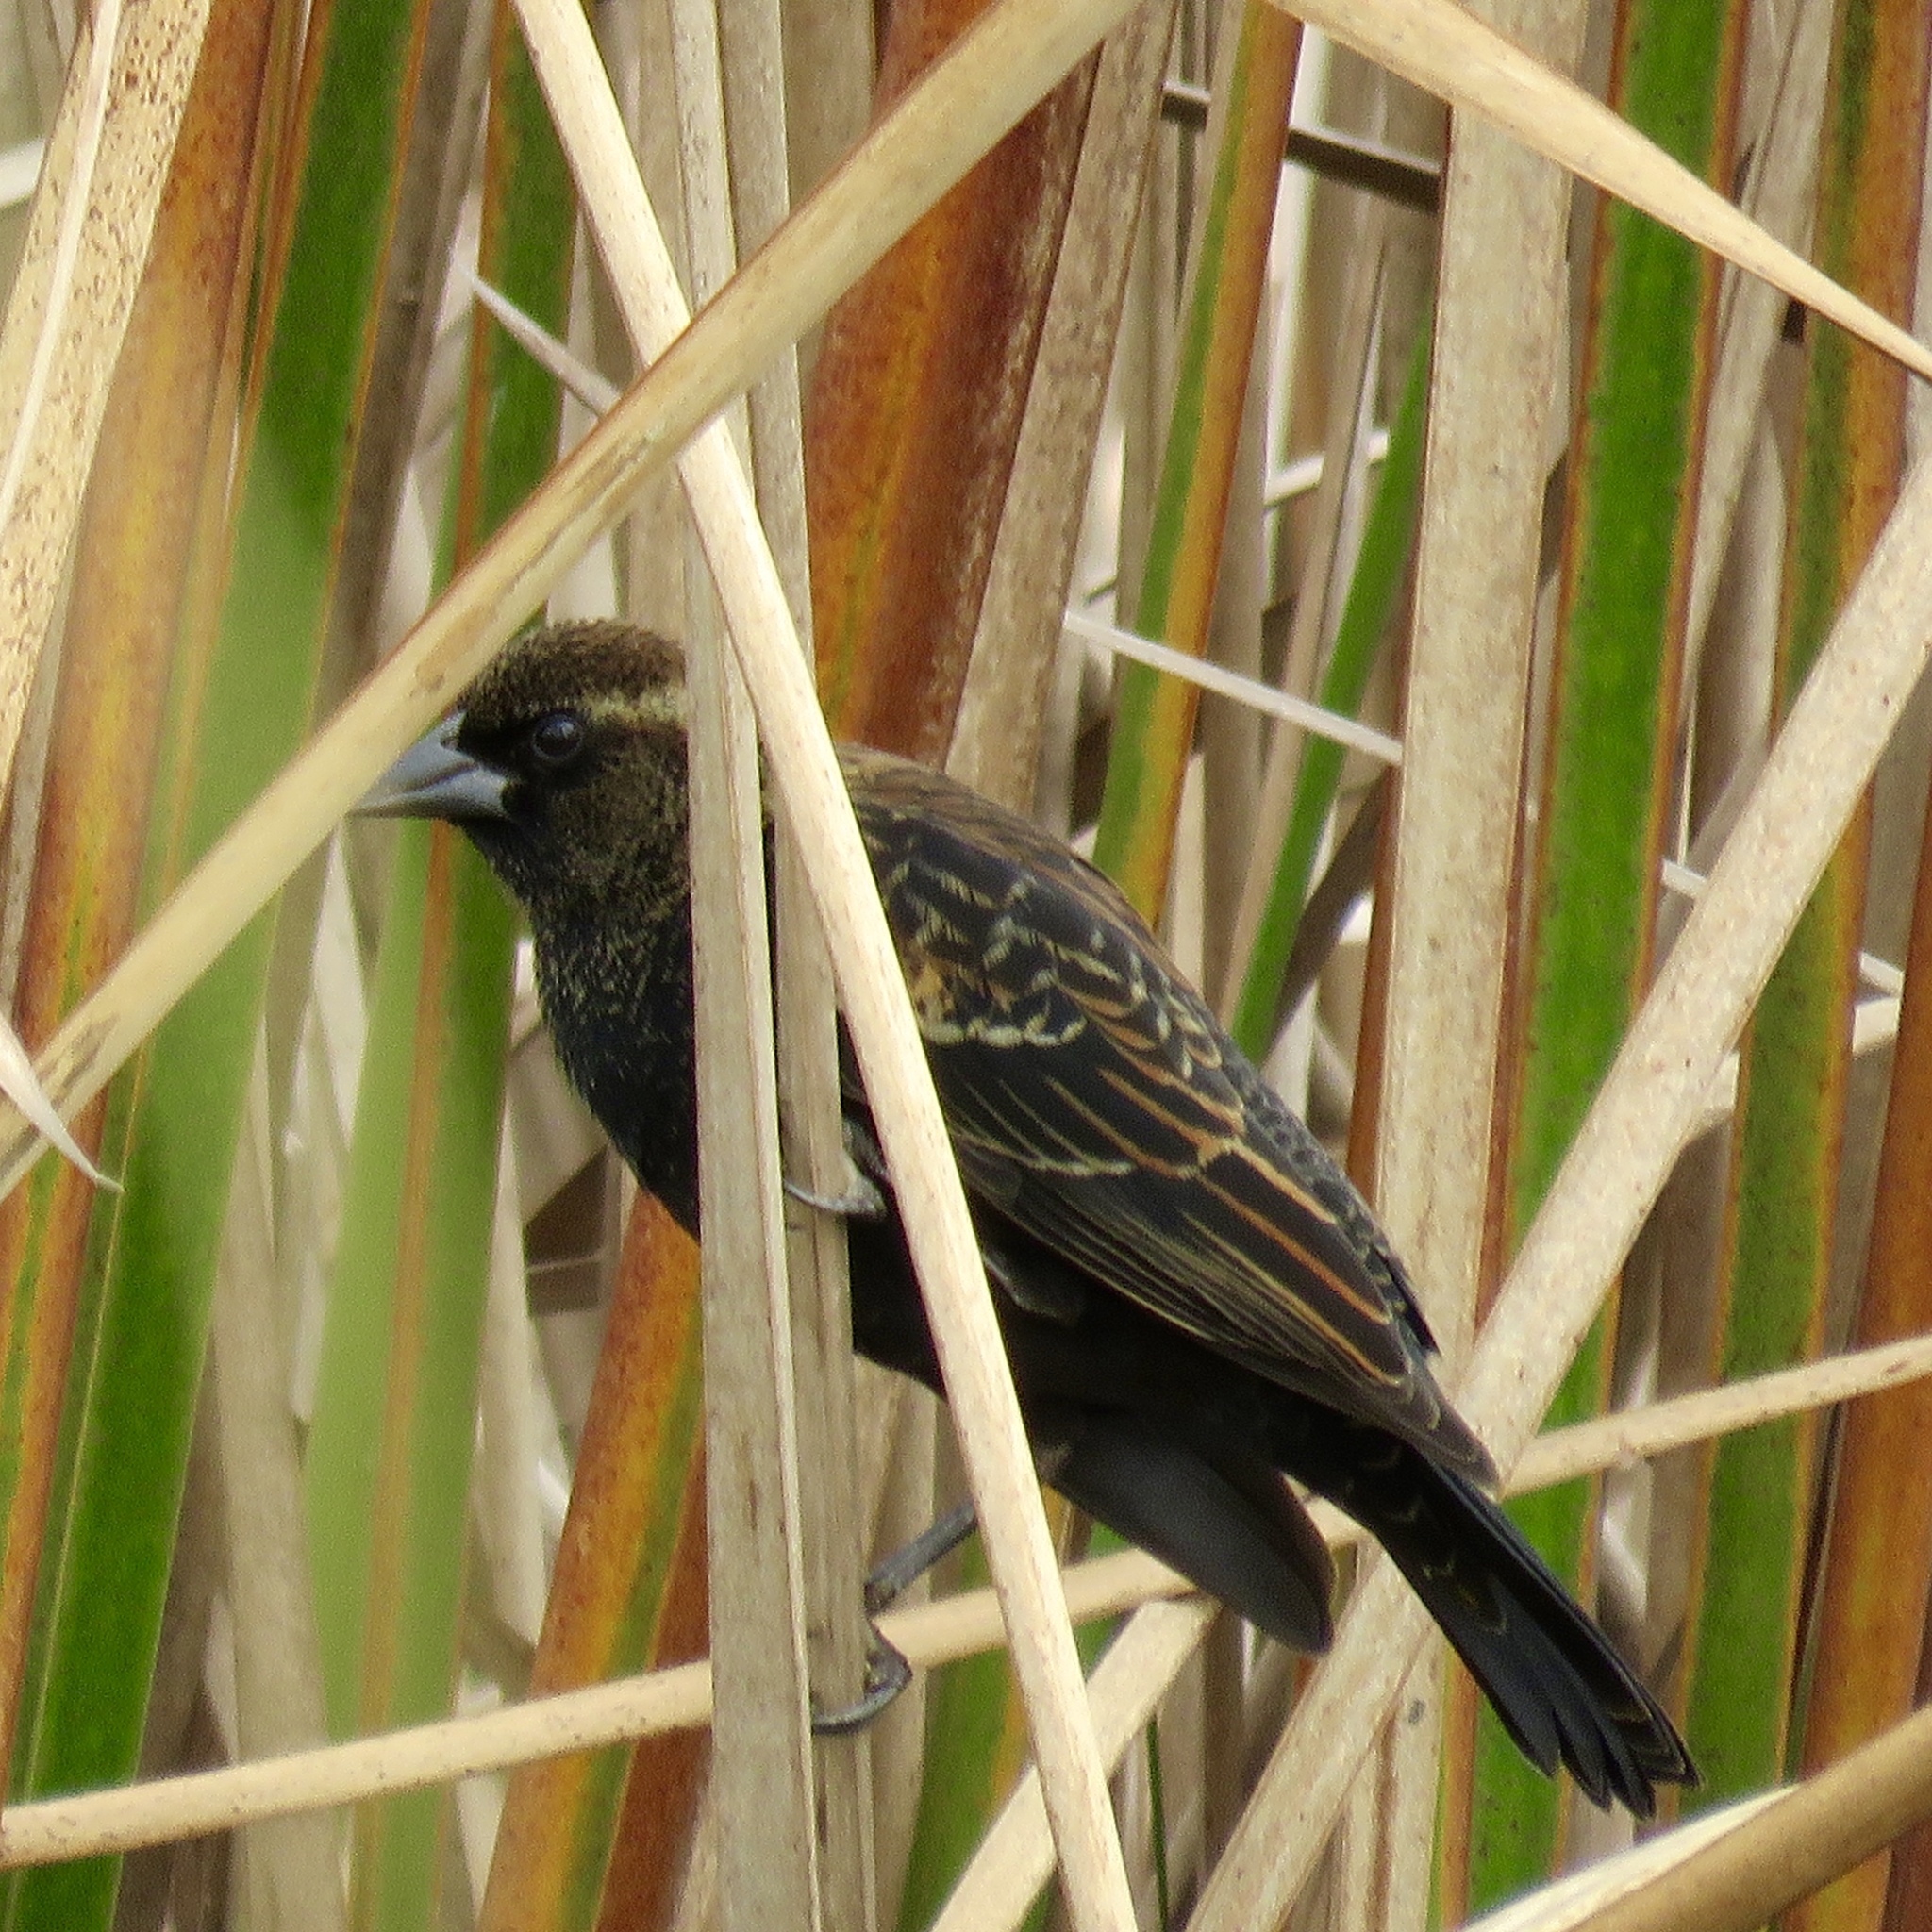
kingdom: Animalia
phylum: Chordata
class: Aves
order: Passeriformes
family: Icteridae
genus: Agelaius
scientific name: Agelaius phoeniceus
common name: Red-winged blackbird
